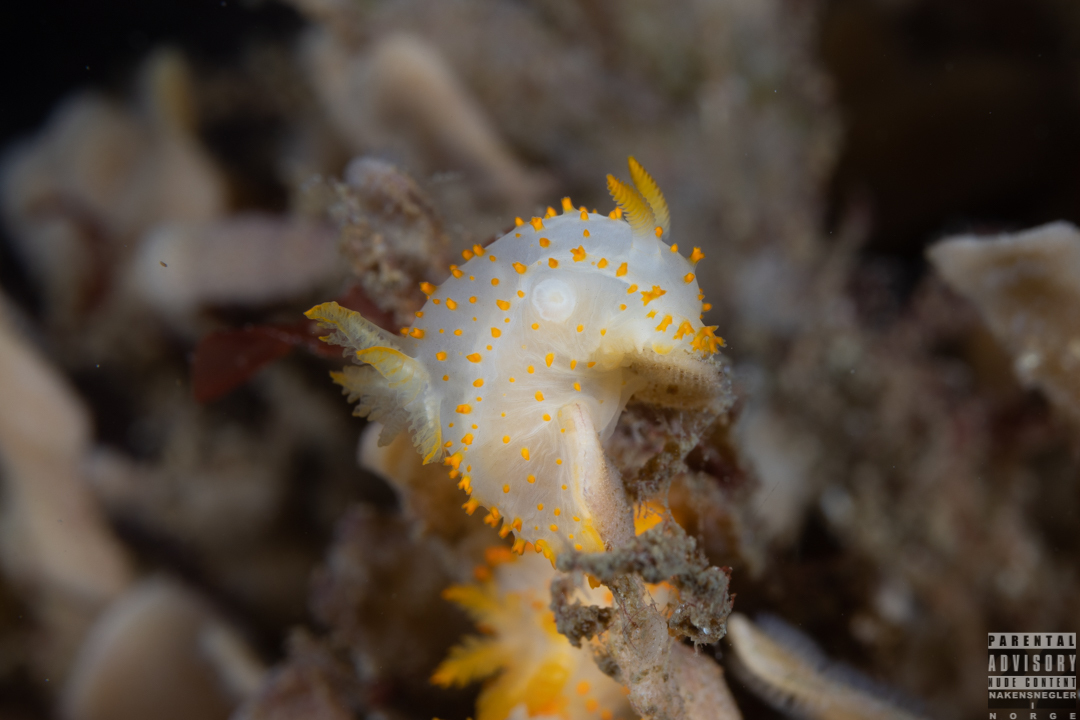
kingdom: Animalia
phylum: Mollusca
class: Gastropoda
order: Nudibranchia
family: Polyceridae
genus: Crimora
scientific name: Crimora papillata
